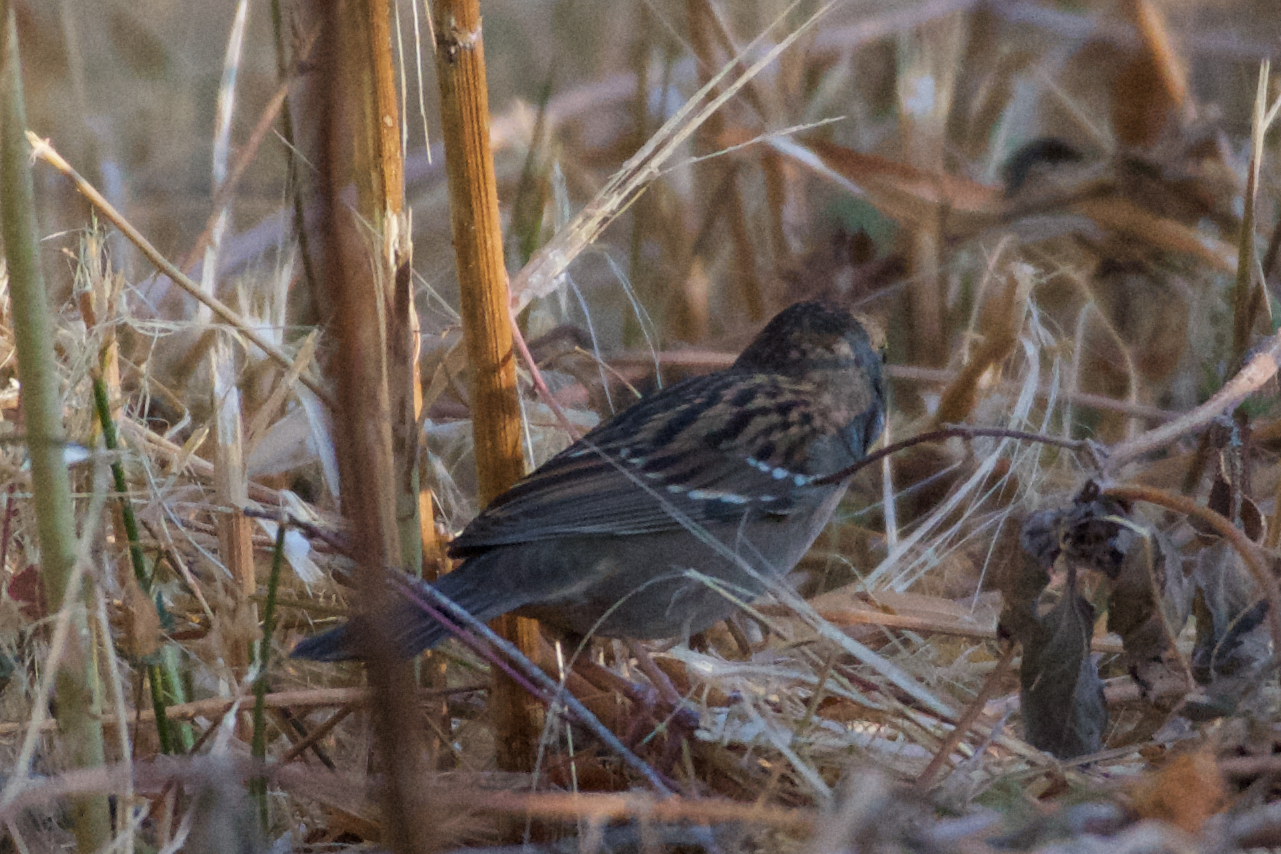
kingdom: Animalia
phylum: Chordata
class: Aves
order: Passeriformes
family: Passerellidae
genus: Zonotrichia
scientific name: Zonotrichia atricapilla
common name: Golden-crowned sparrow
